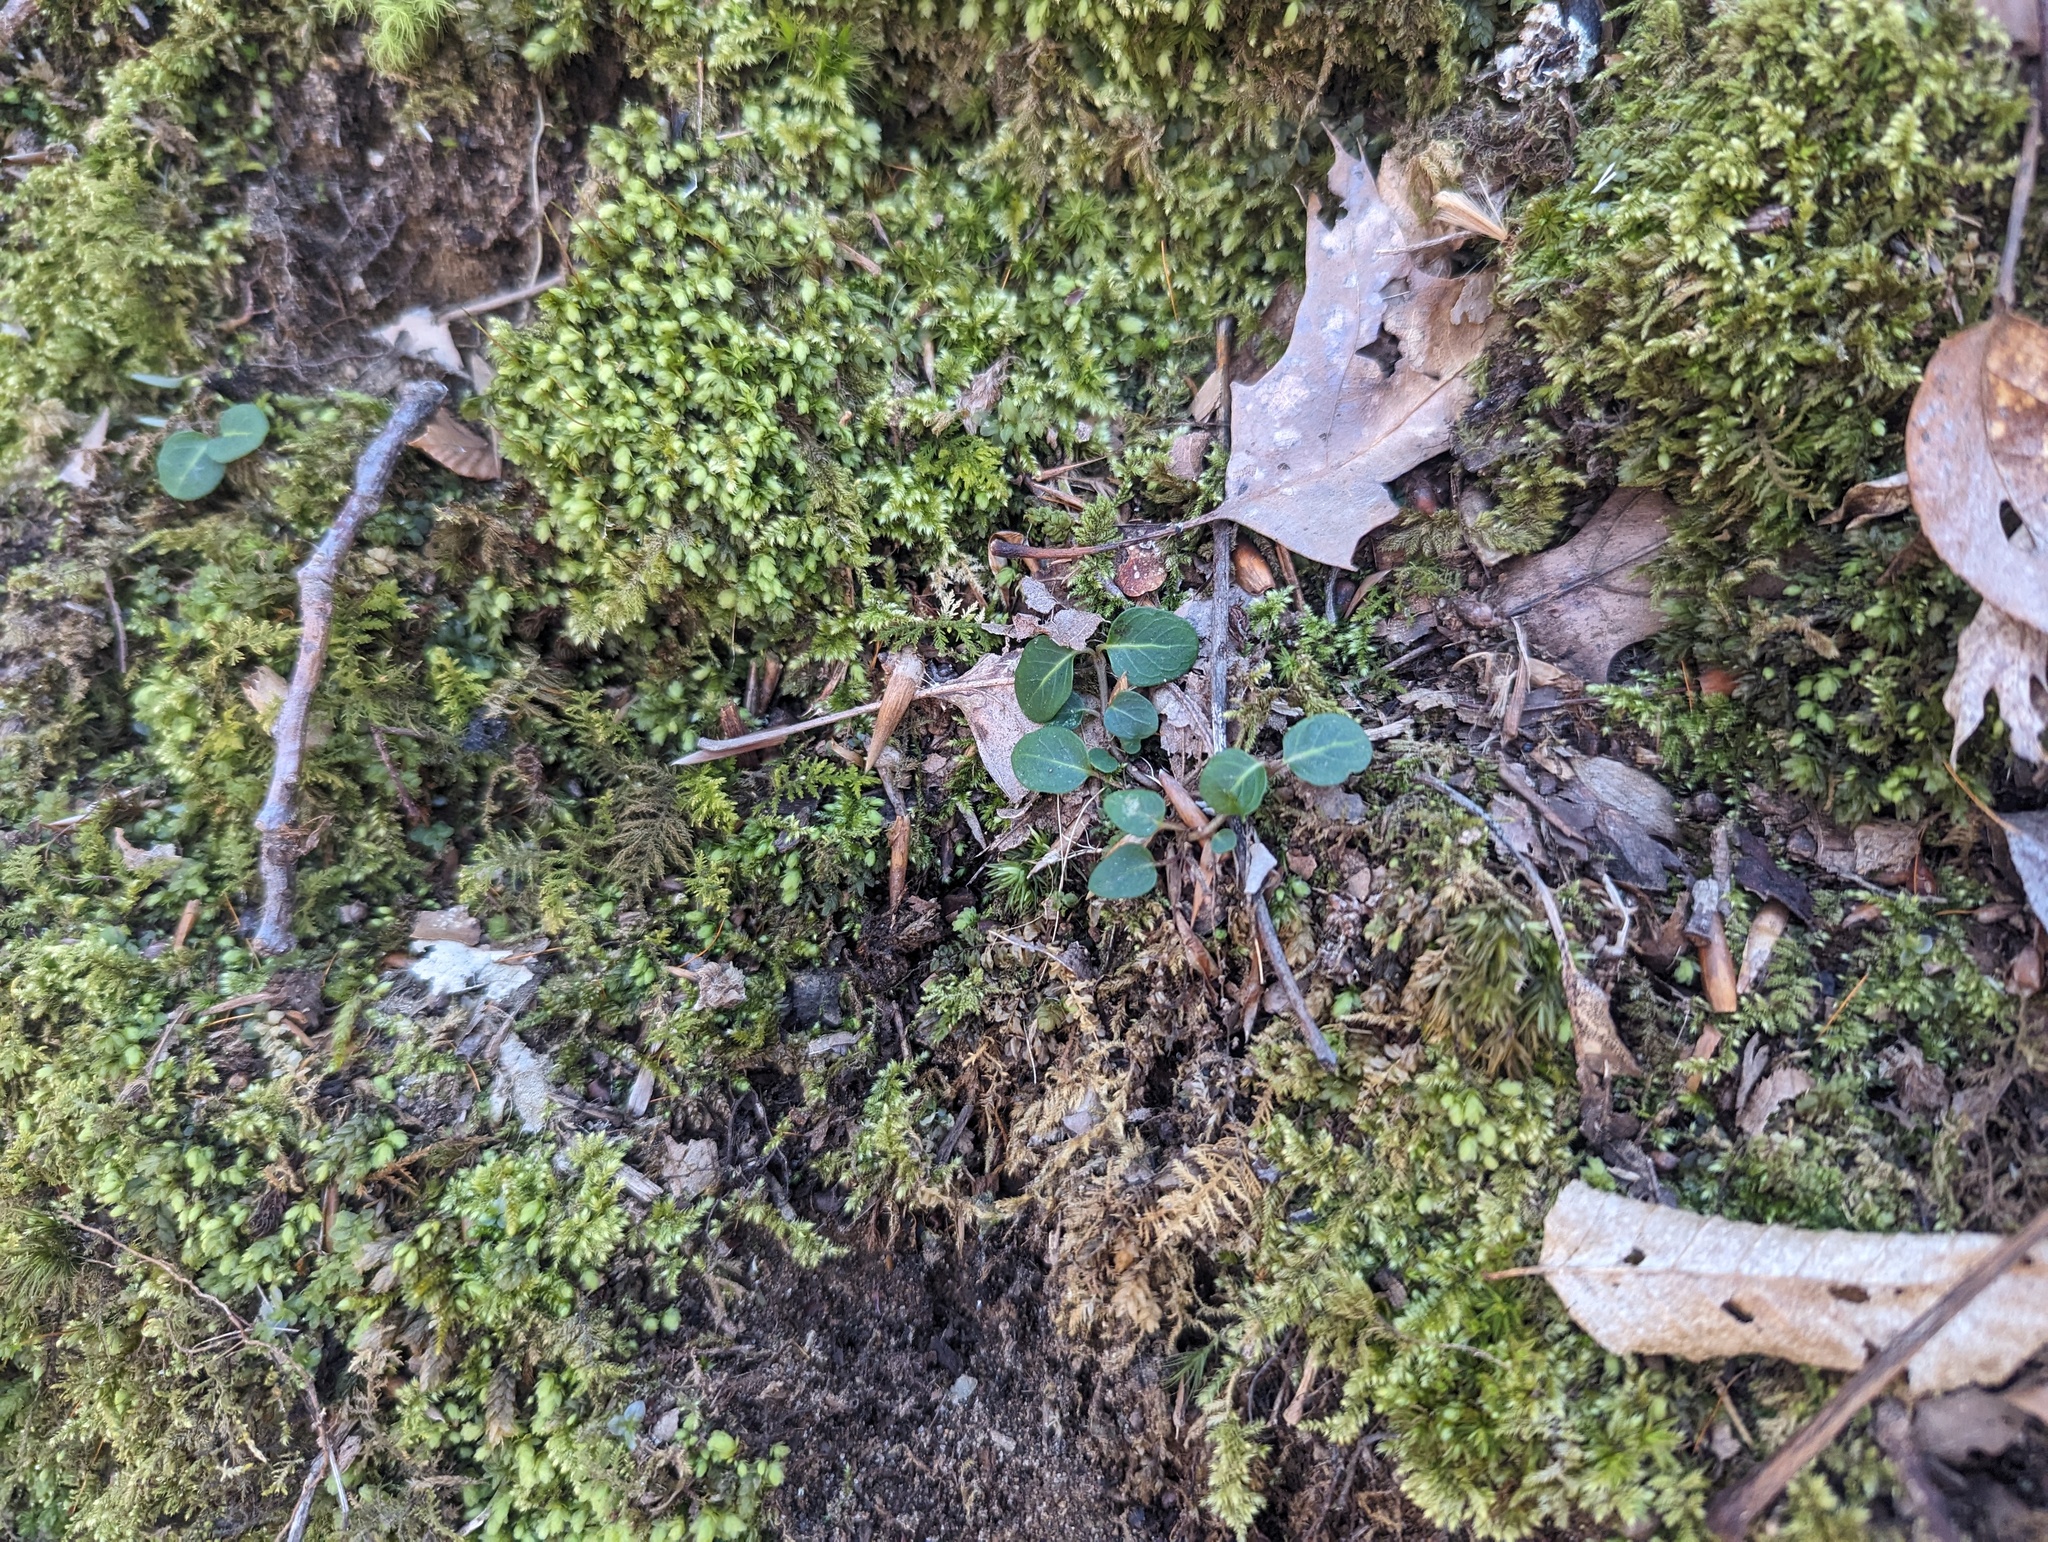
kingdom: Plantae
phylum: Tracheophyta
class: Magnoliopsida
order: Gentianales
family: Rubiaceae
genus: Mitchella
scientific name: Mitchella repens
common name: Partridge-berry
